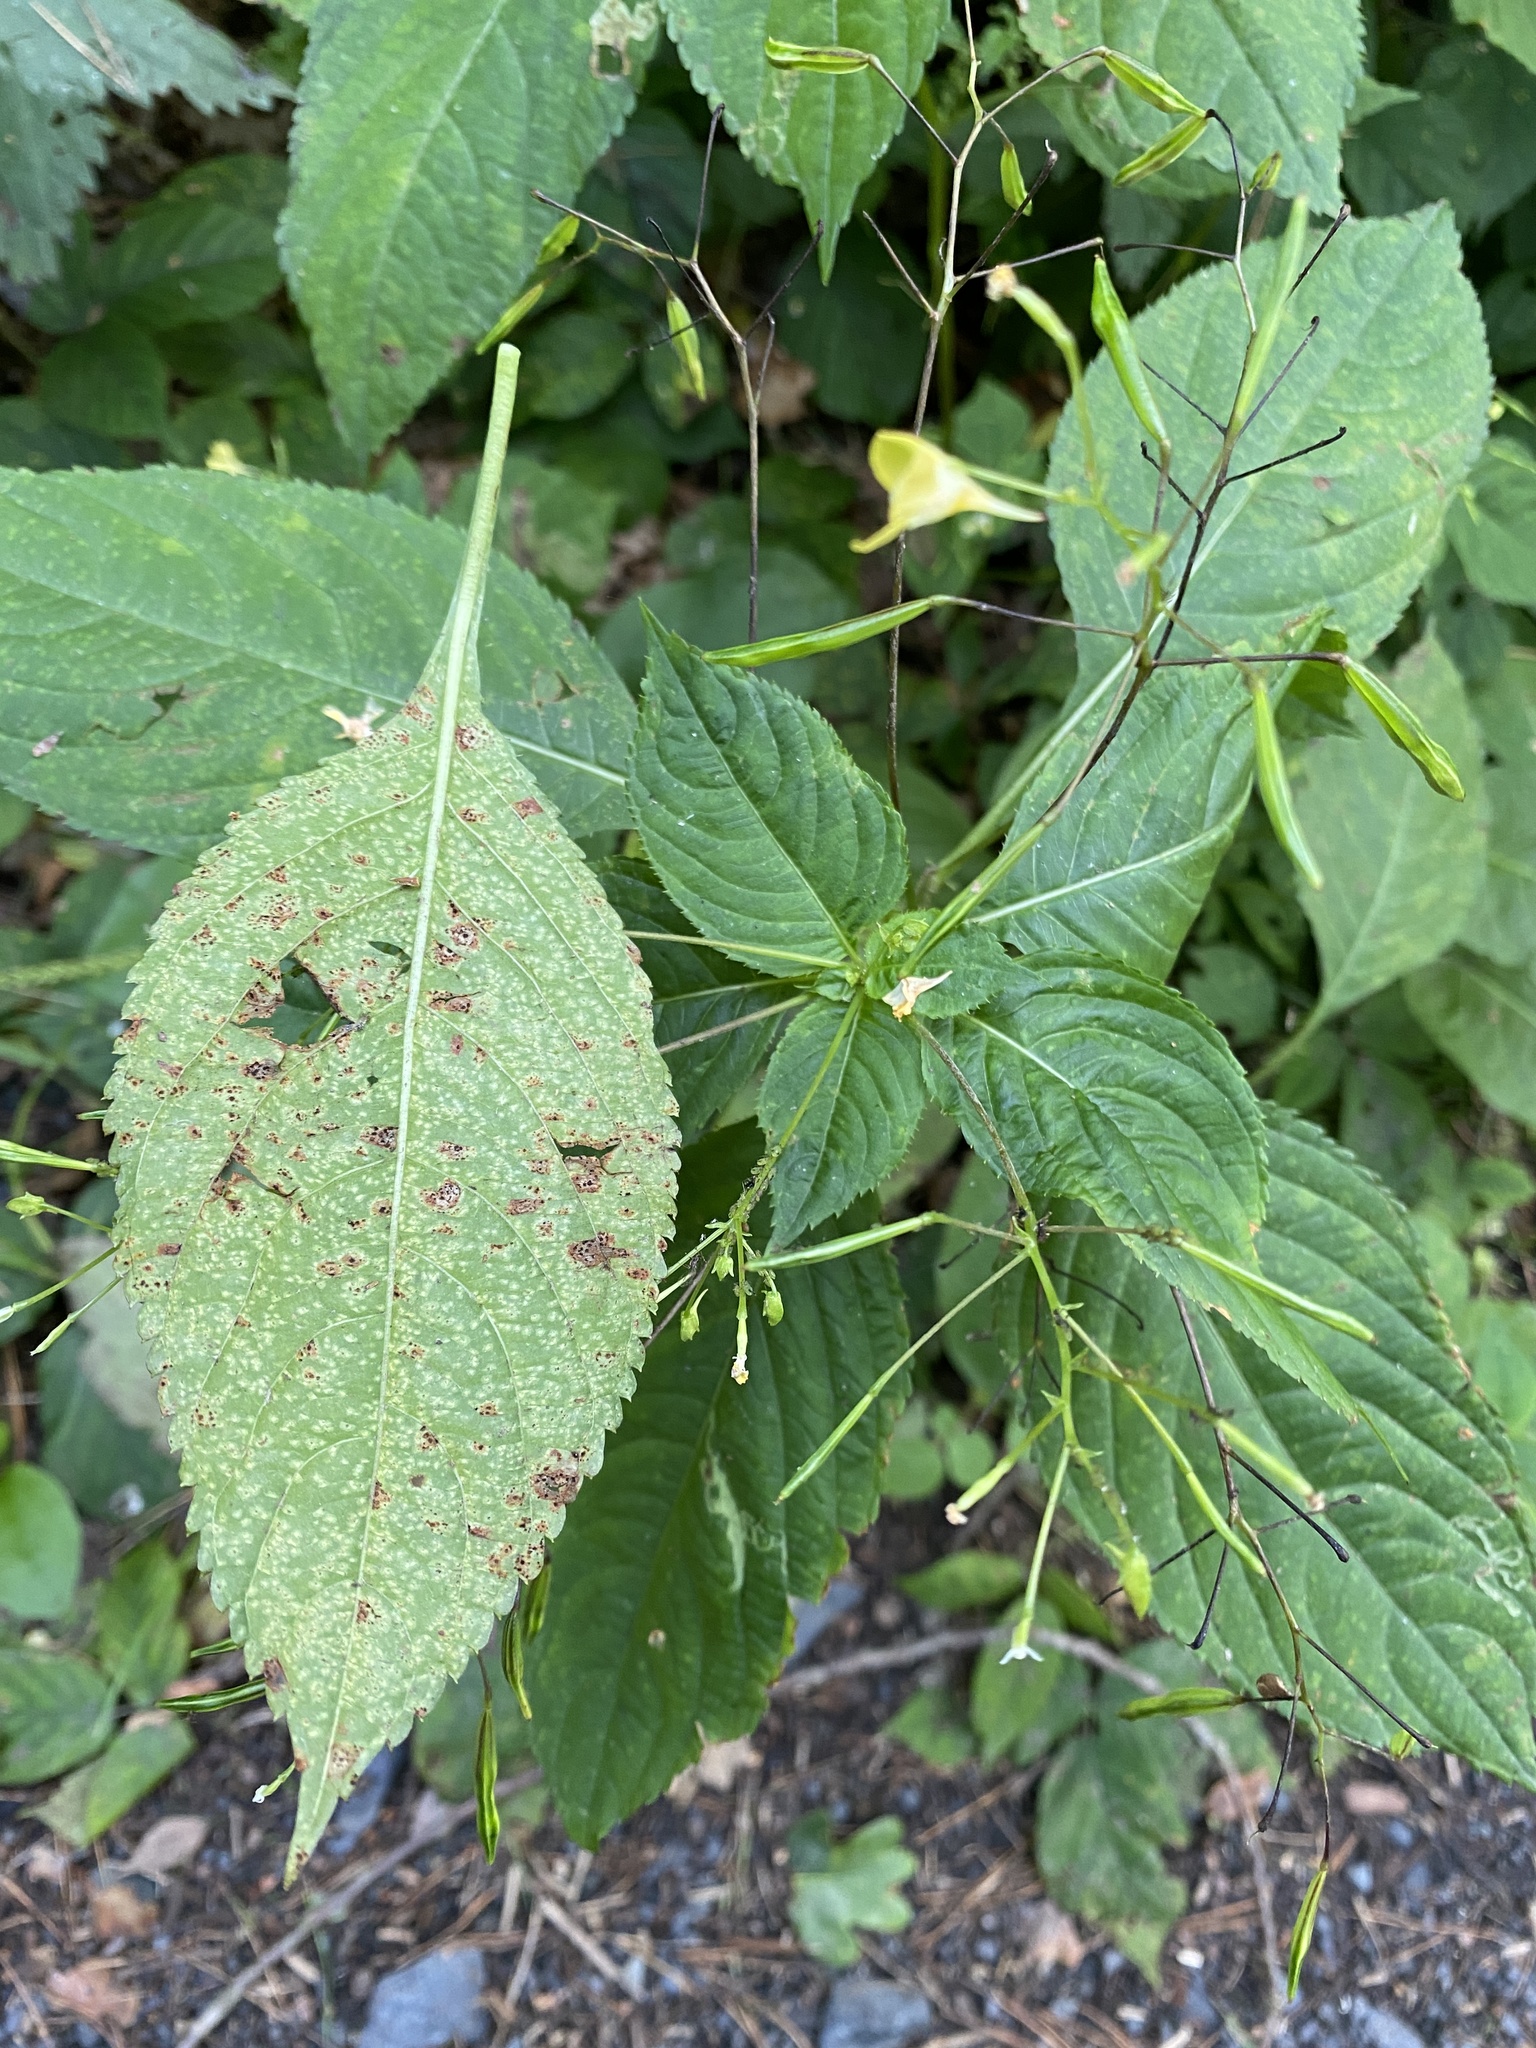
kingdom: Plantae
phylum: Tracheophyta
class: Magnoliopsida
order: Ericales
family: Balsaminaceae
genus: Impatiens
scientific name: Impatiens parviflora
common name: Small balsam
